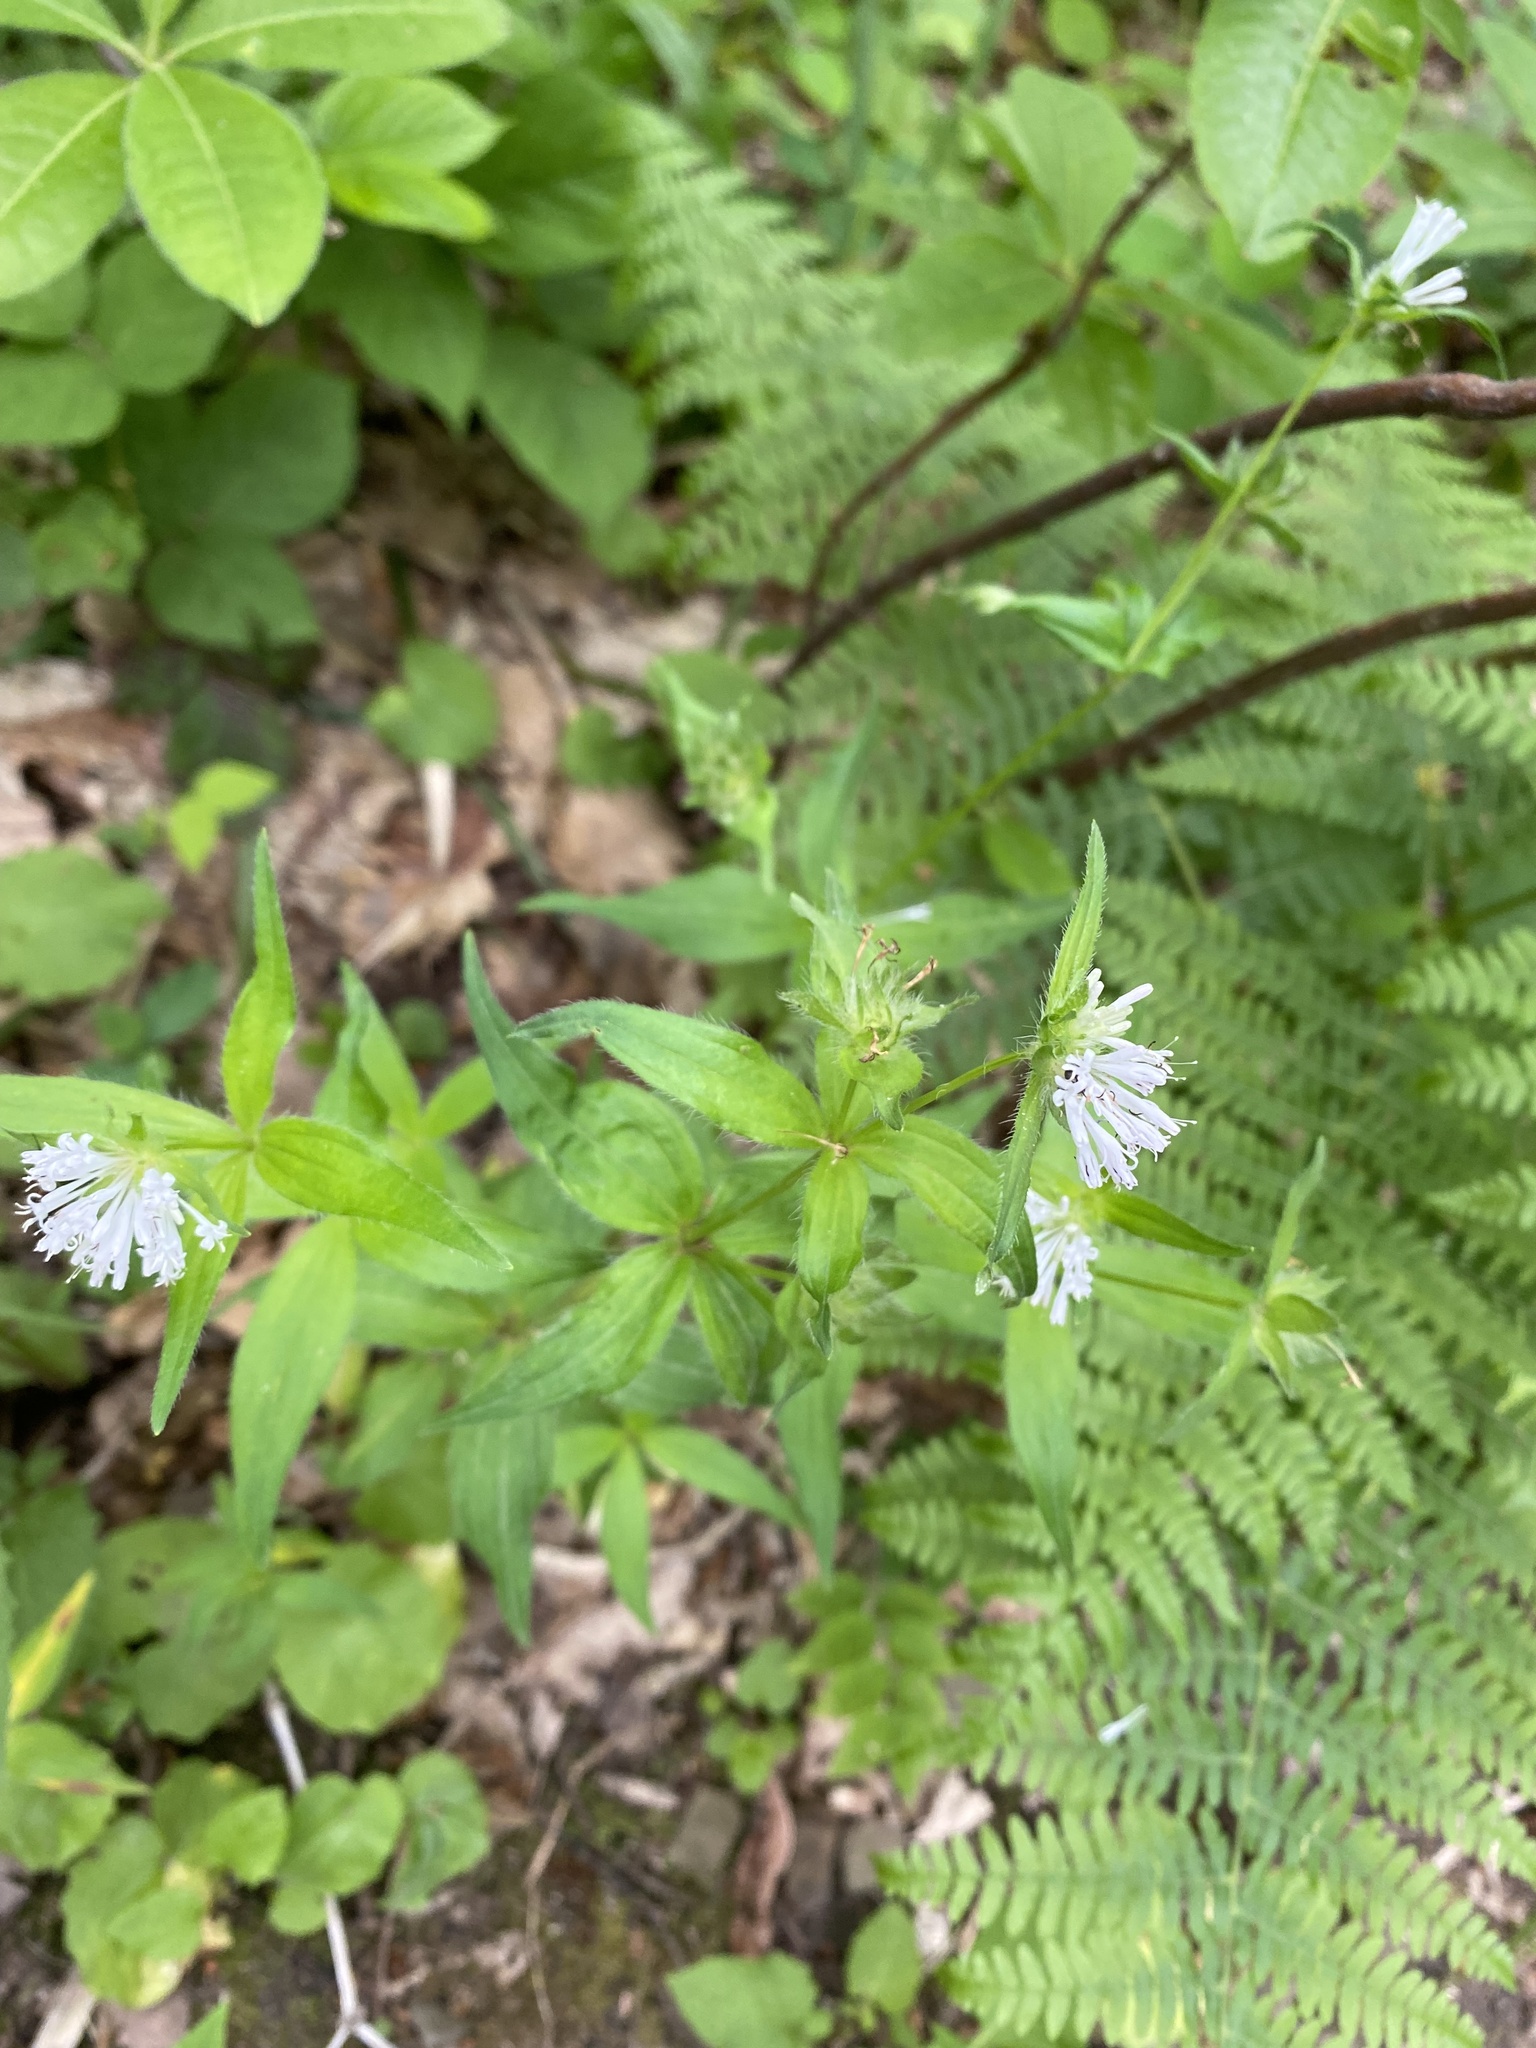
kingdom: Plantae
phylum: Tracheophyta
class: Magnoliopsida
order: Gentianales
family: Rubiaceae
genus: Asperula
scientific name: Asperula taurina
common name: Pink woodruff
